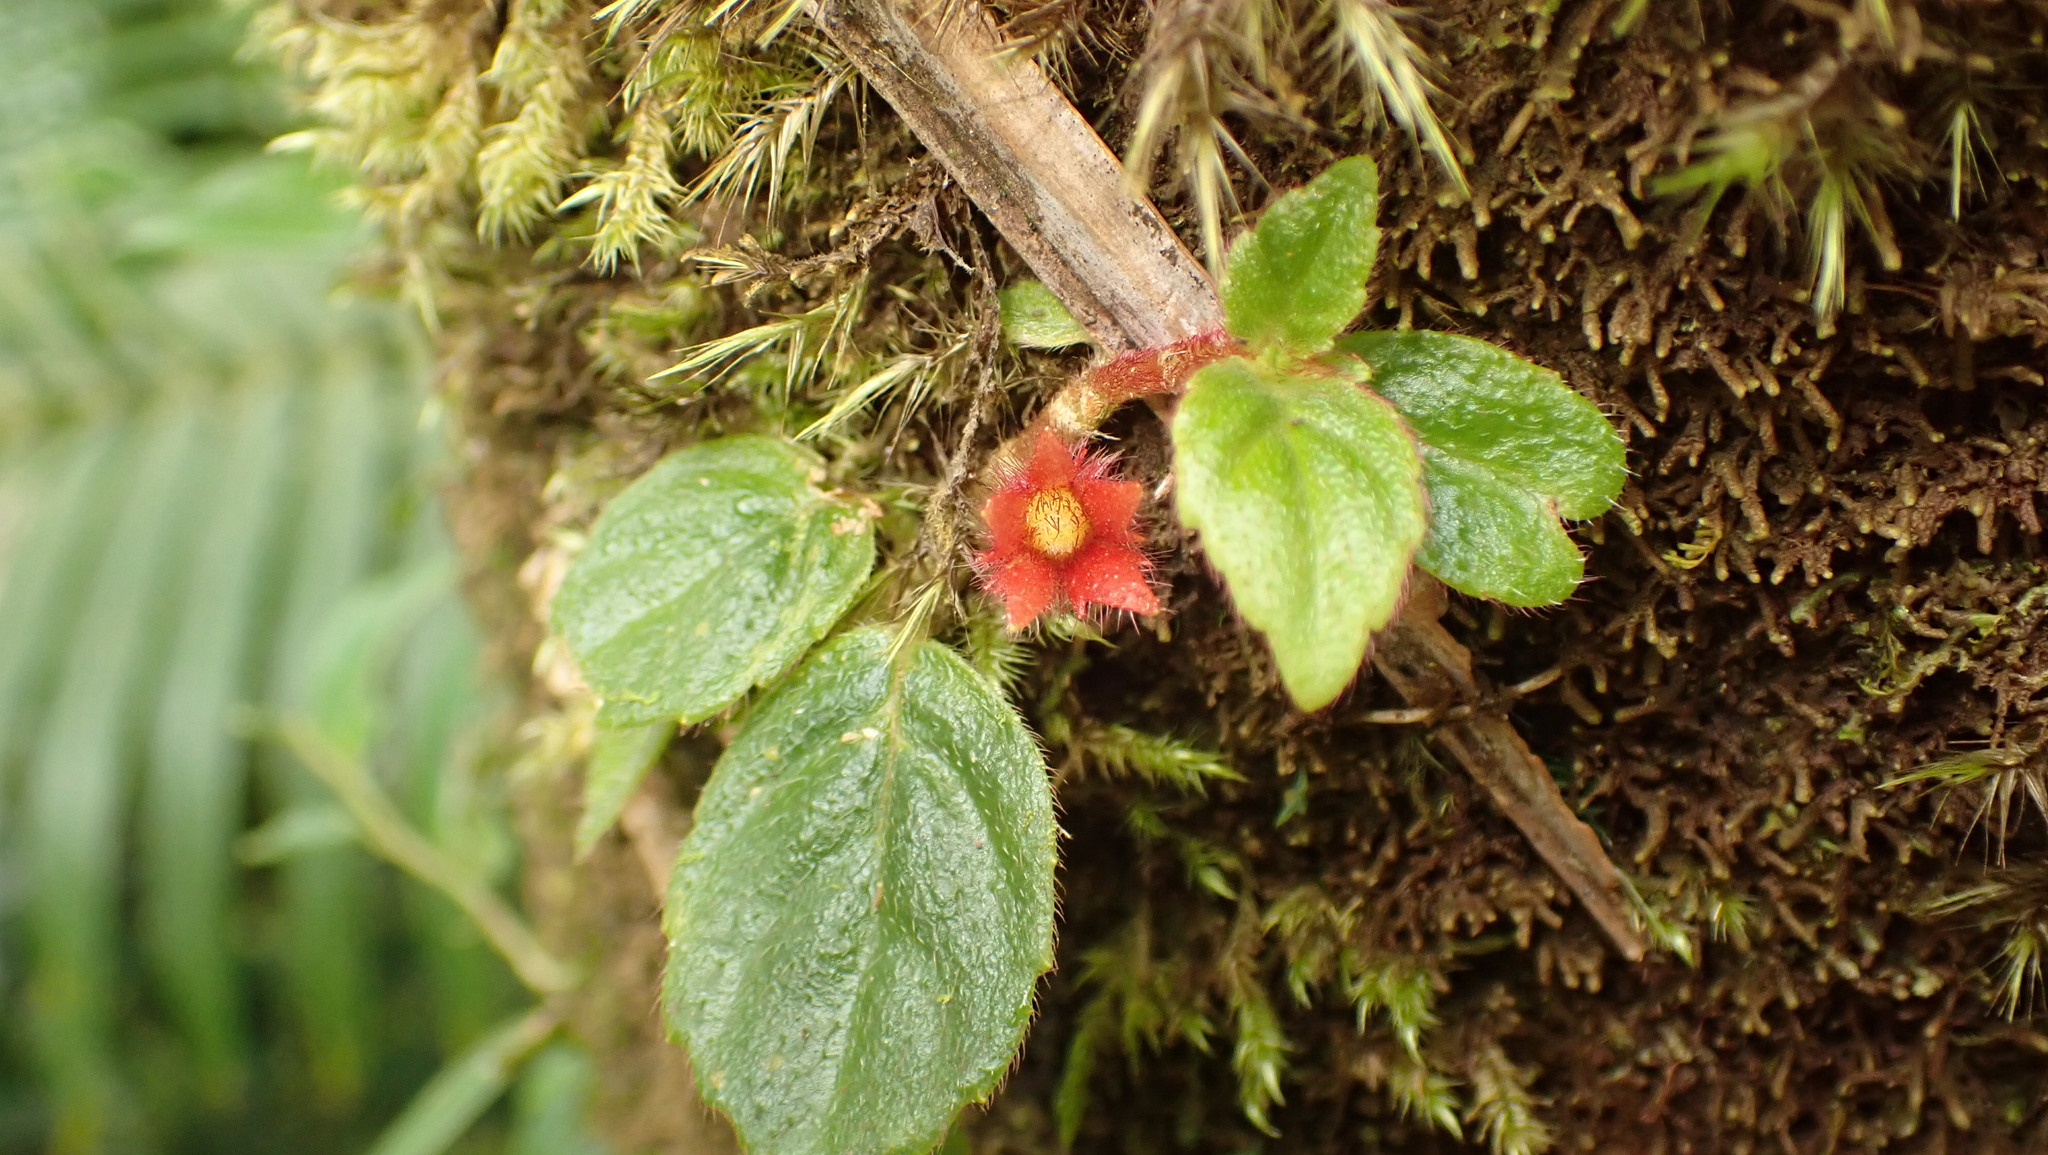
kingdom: Plantae
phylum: Tracheophyta
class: Magnoliopsida
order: Lamiales
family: Gesneriaceae
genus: Columnea
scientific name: Columnea ambigua
